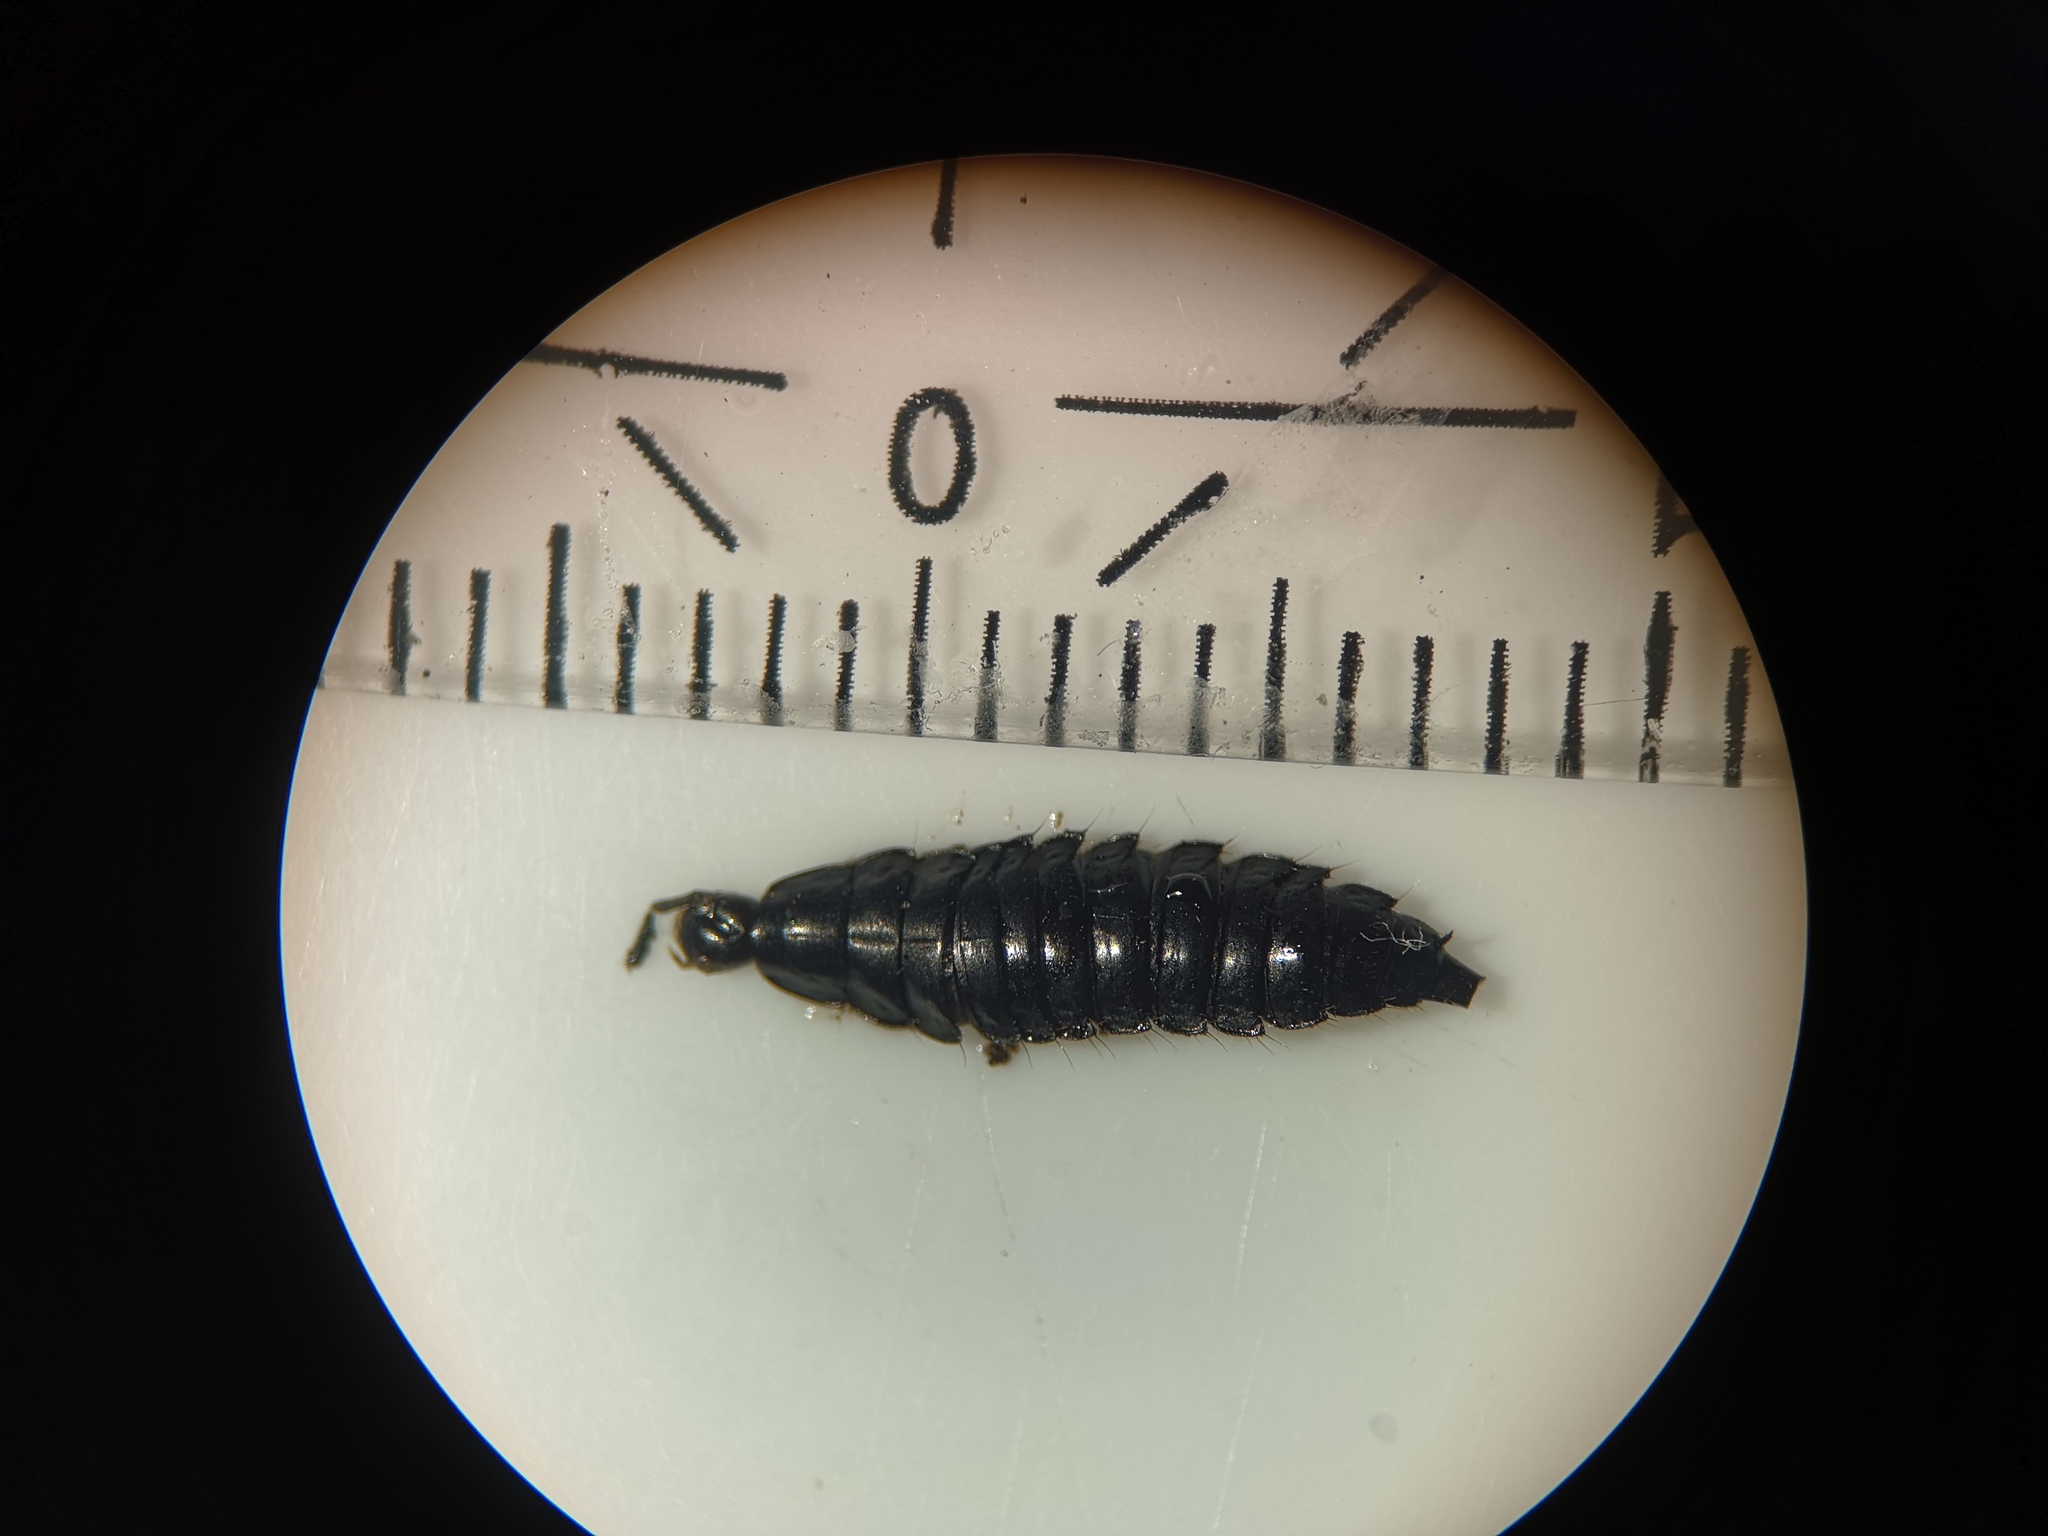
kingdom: Animalia
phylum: Arthropoda
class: Insecta
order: Coleoptera
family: Staphylinidae
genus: Silpha
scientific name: Silpha atrata
